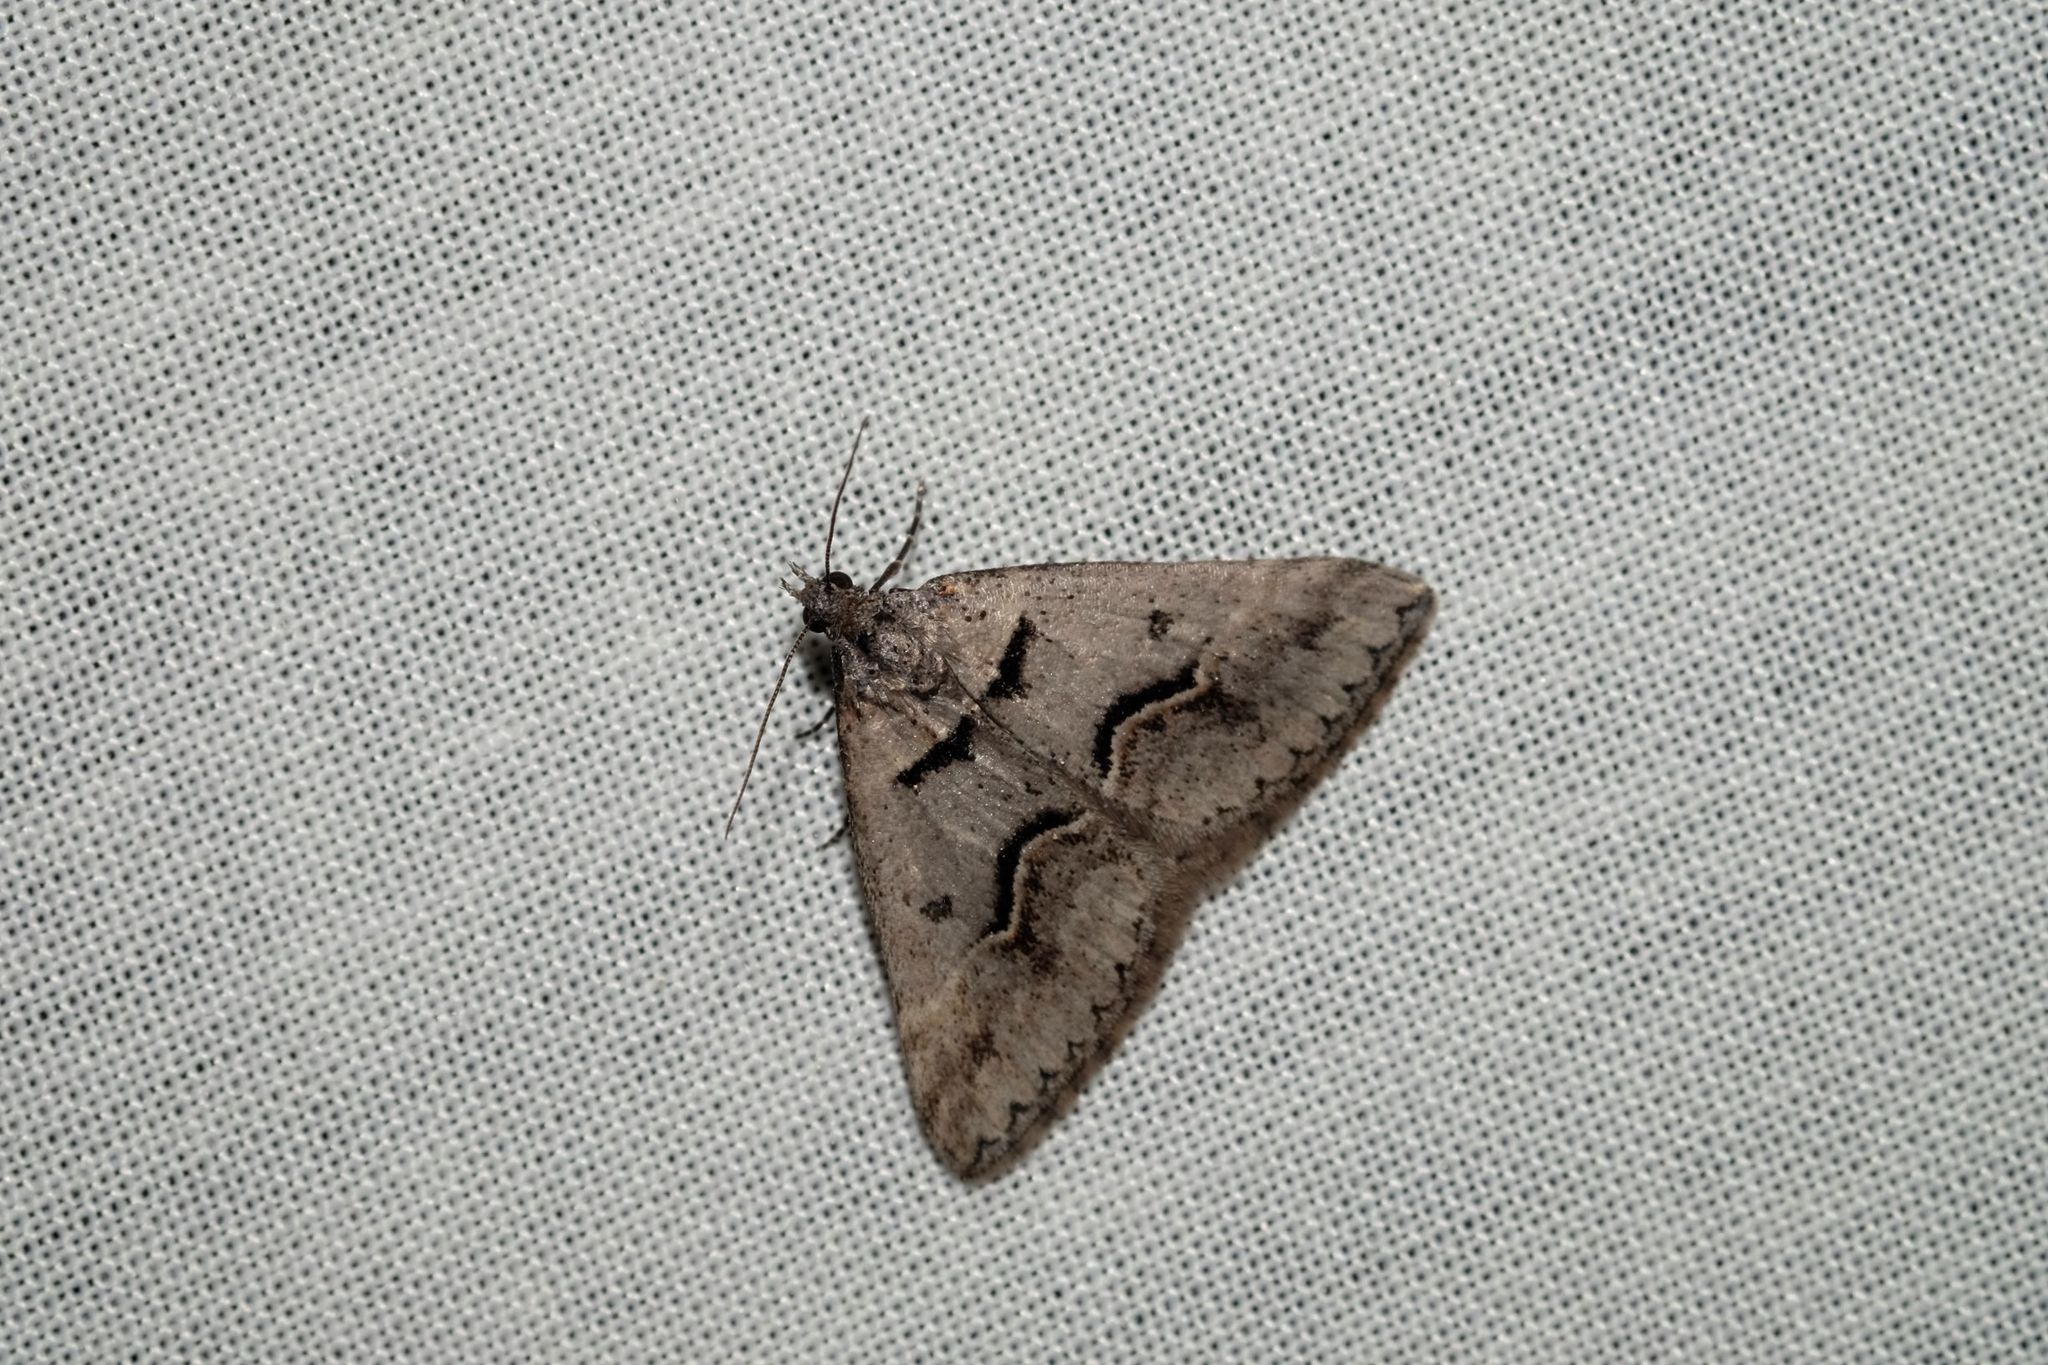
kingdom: Animalia
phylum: Arthropoda
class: Insecta
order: Lepidoptera
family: Geometridae
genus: Dichromodes
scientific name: Dichromodes atrosignata
